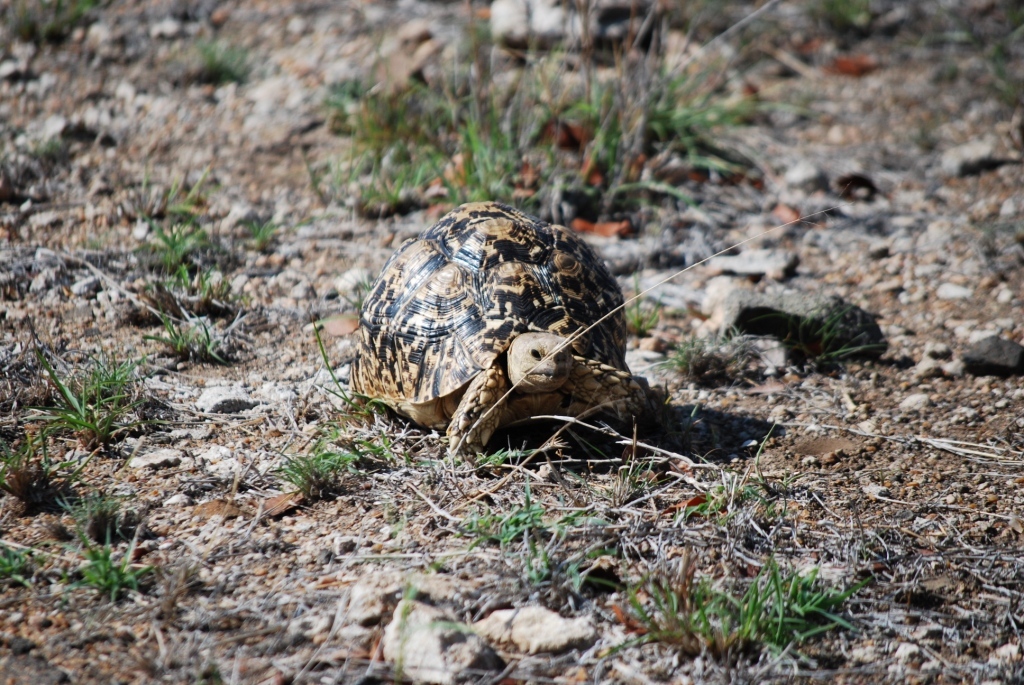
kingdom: Animalia
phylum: Chordata
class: Testudines
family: Testudinidae
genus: Stigmochelys
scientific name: Stigmochelys pardalis
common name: Leopard tortoise
